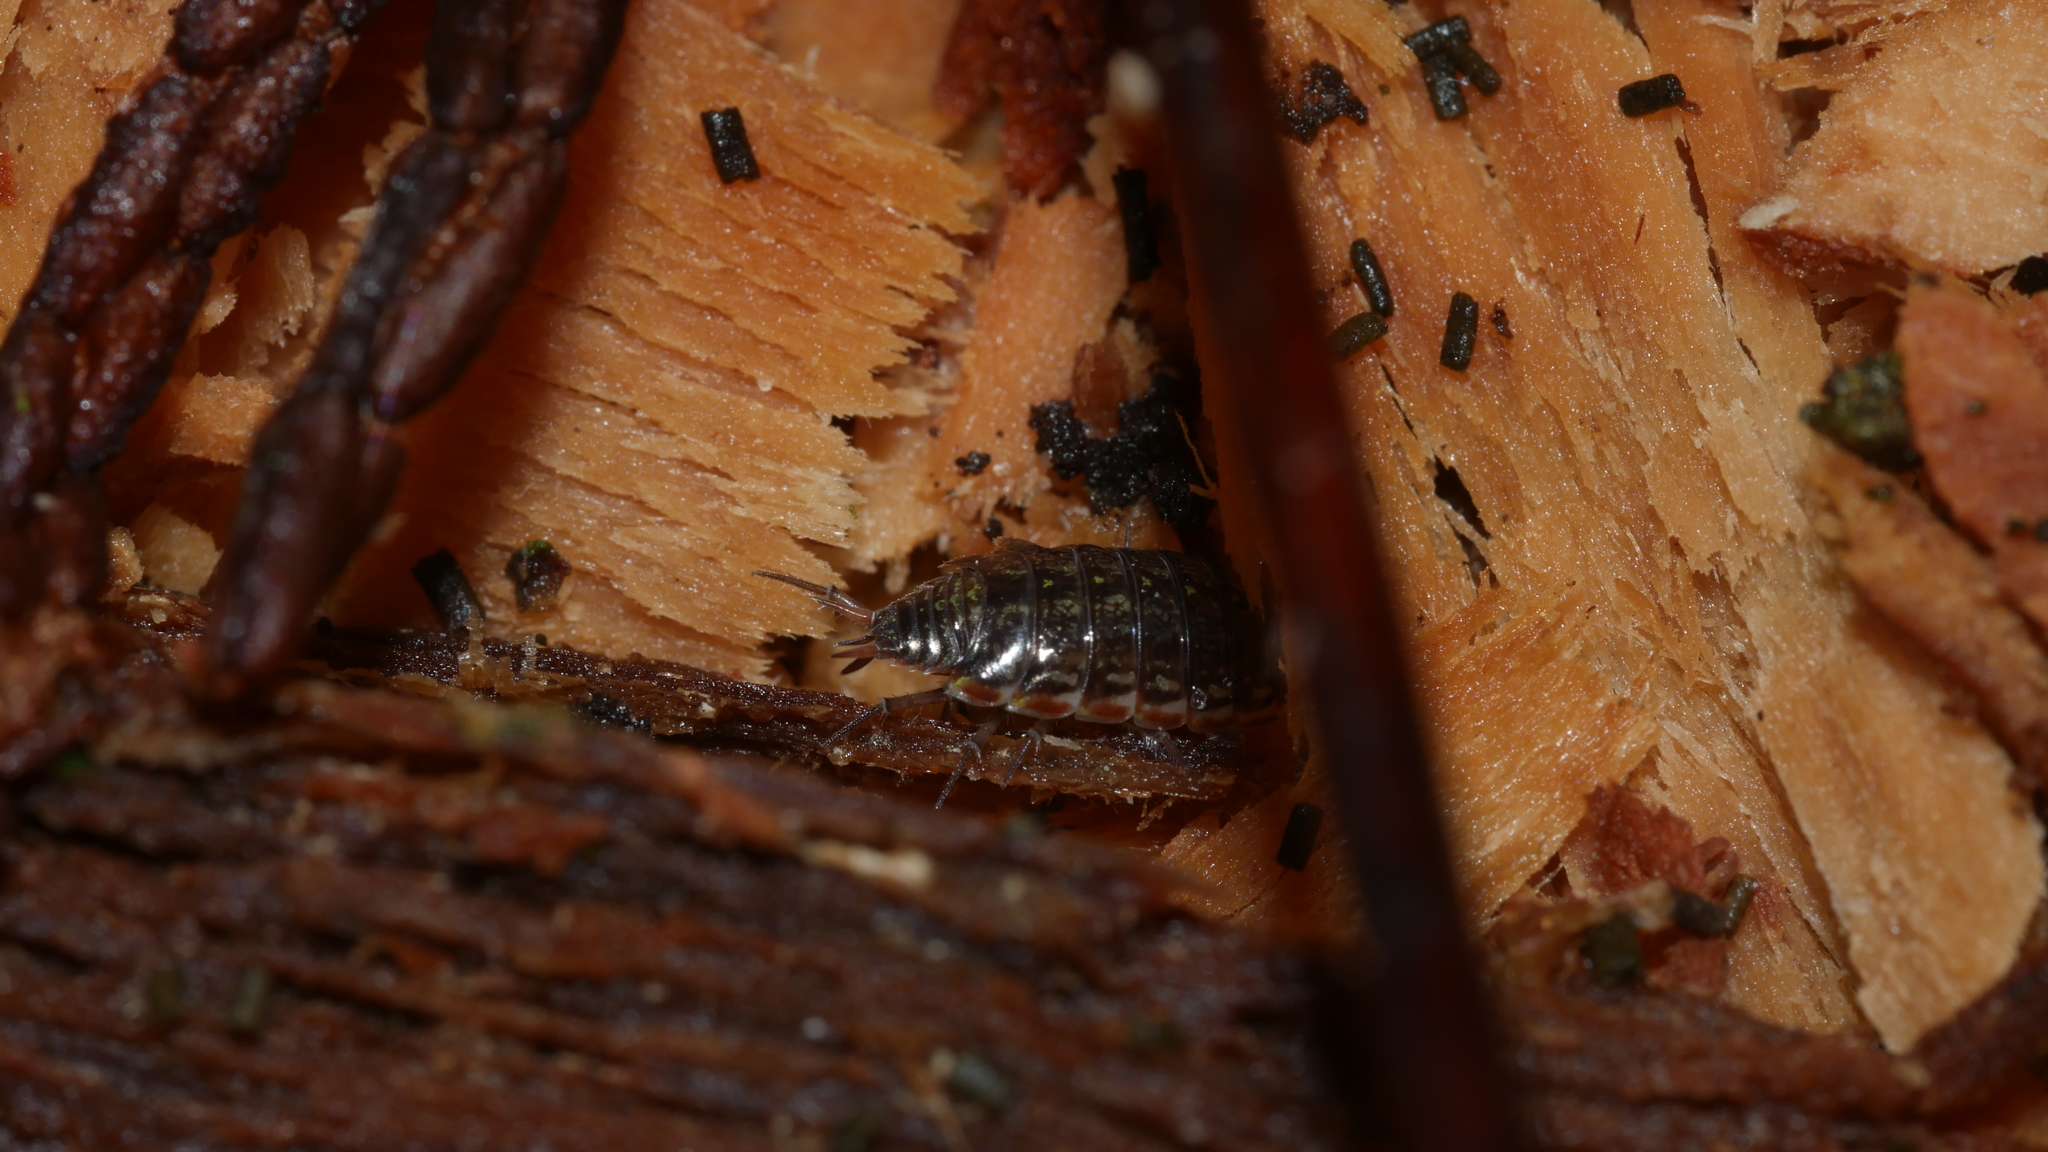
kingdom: Animalia
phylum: Arthropoda
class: Malacostraca
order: Isopoda
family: Philosciidae
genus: Philoscia
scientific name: Philoscia muscorum
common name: Common striped woodlouse
